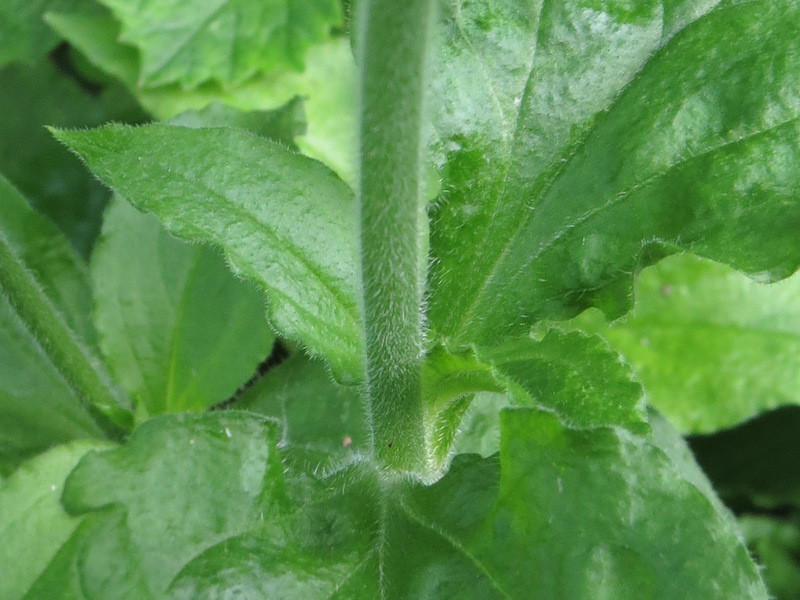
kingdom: Plantae
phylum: Tracheophyta
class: Magnoliopsida
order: Caryophyllales
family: Caryophyllaceae
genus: Silene
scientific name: Silene dioica
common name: Red campion
